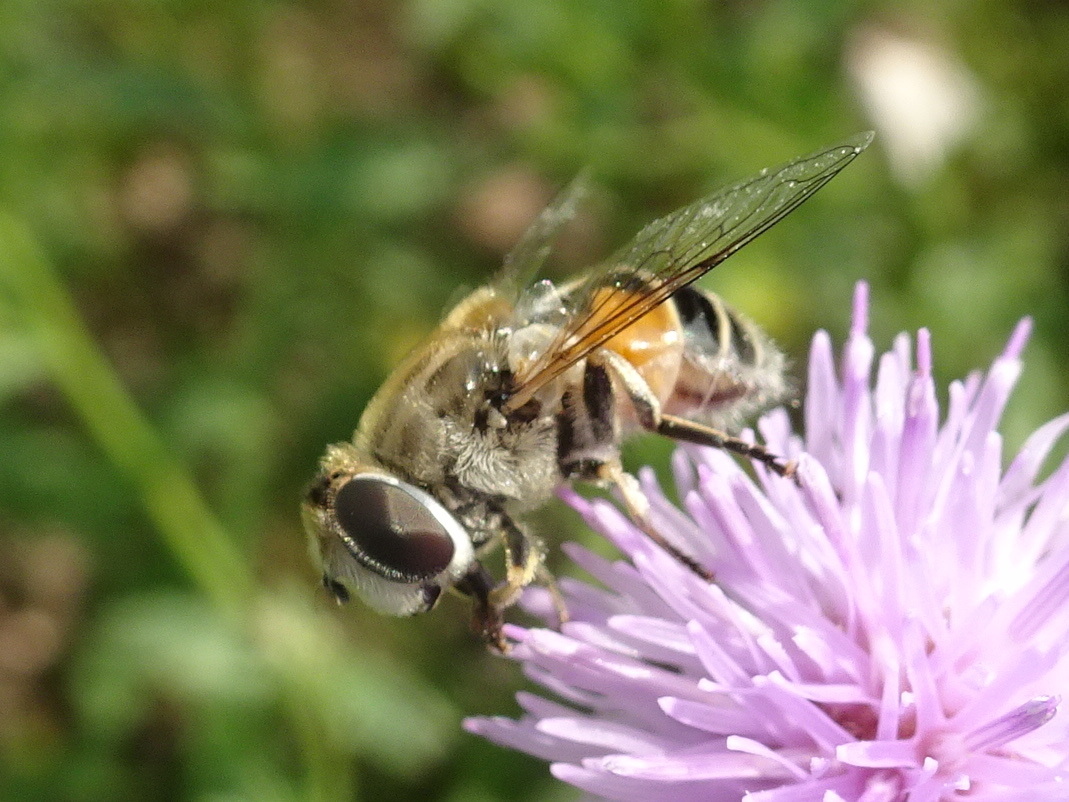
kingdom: Animalia
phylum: Arthropoda
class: Insecta
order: Diptera
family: Syrphidae
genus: Eristalis
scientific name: Eristalis arbustorum
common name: Hover fly
